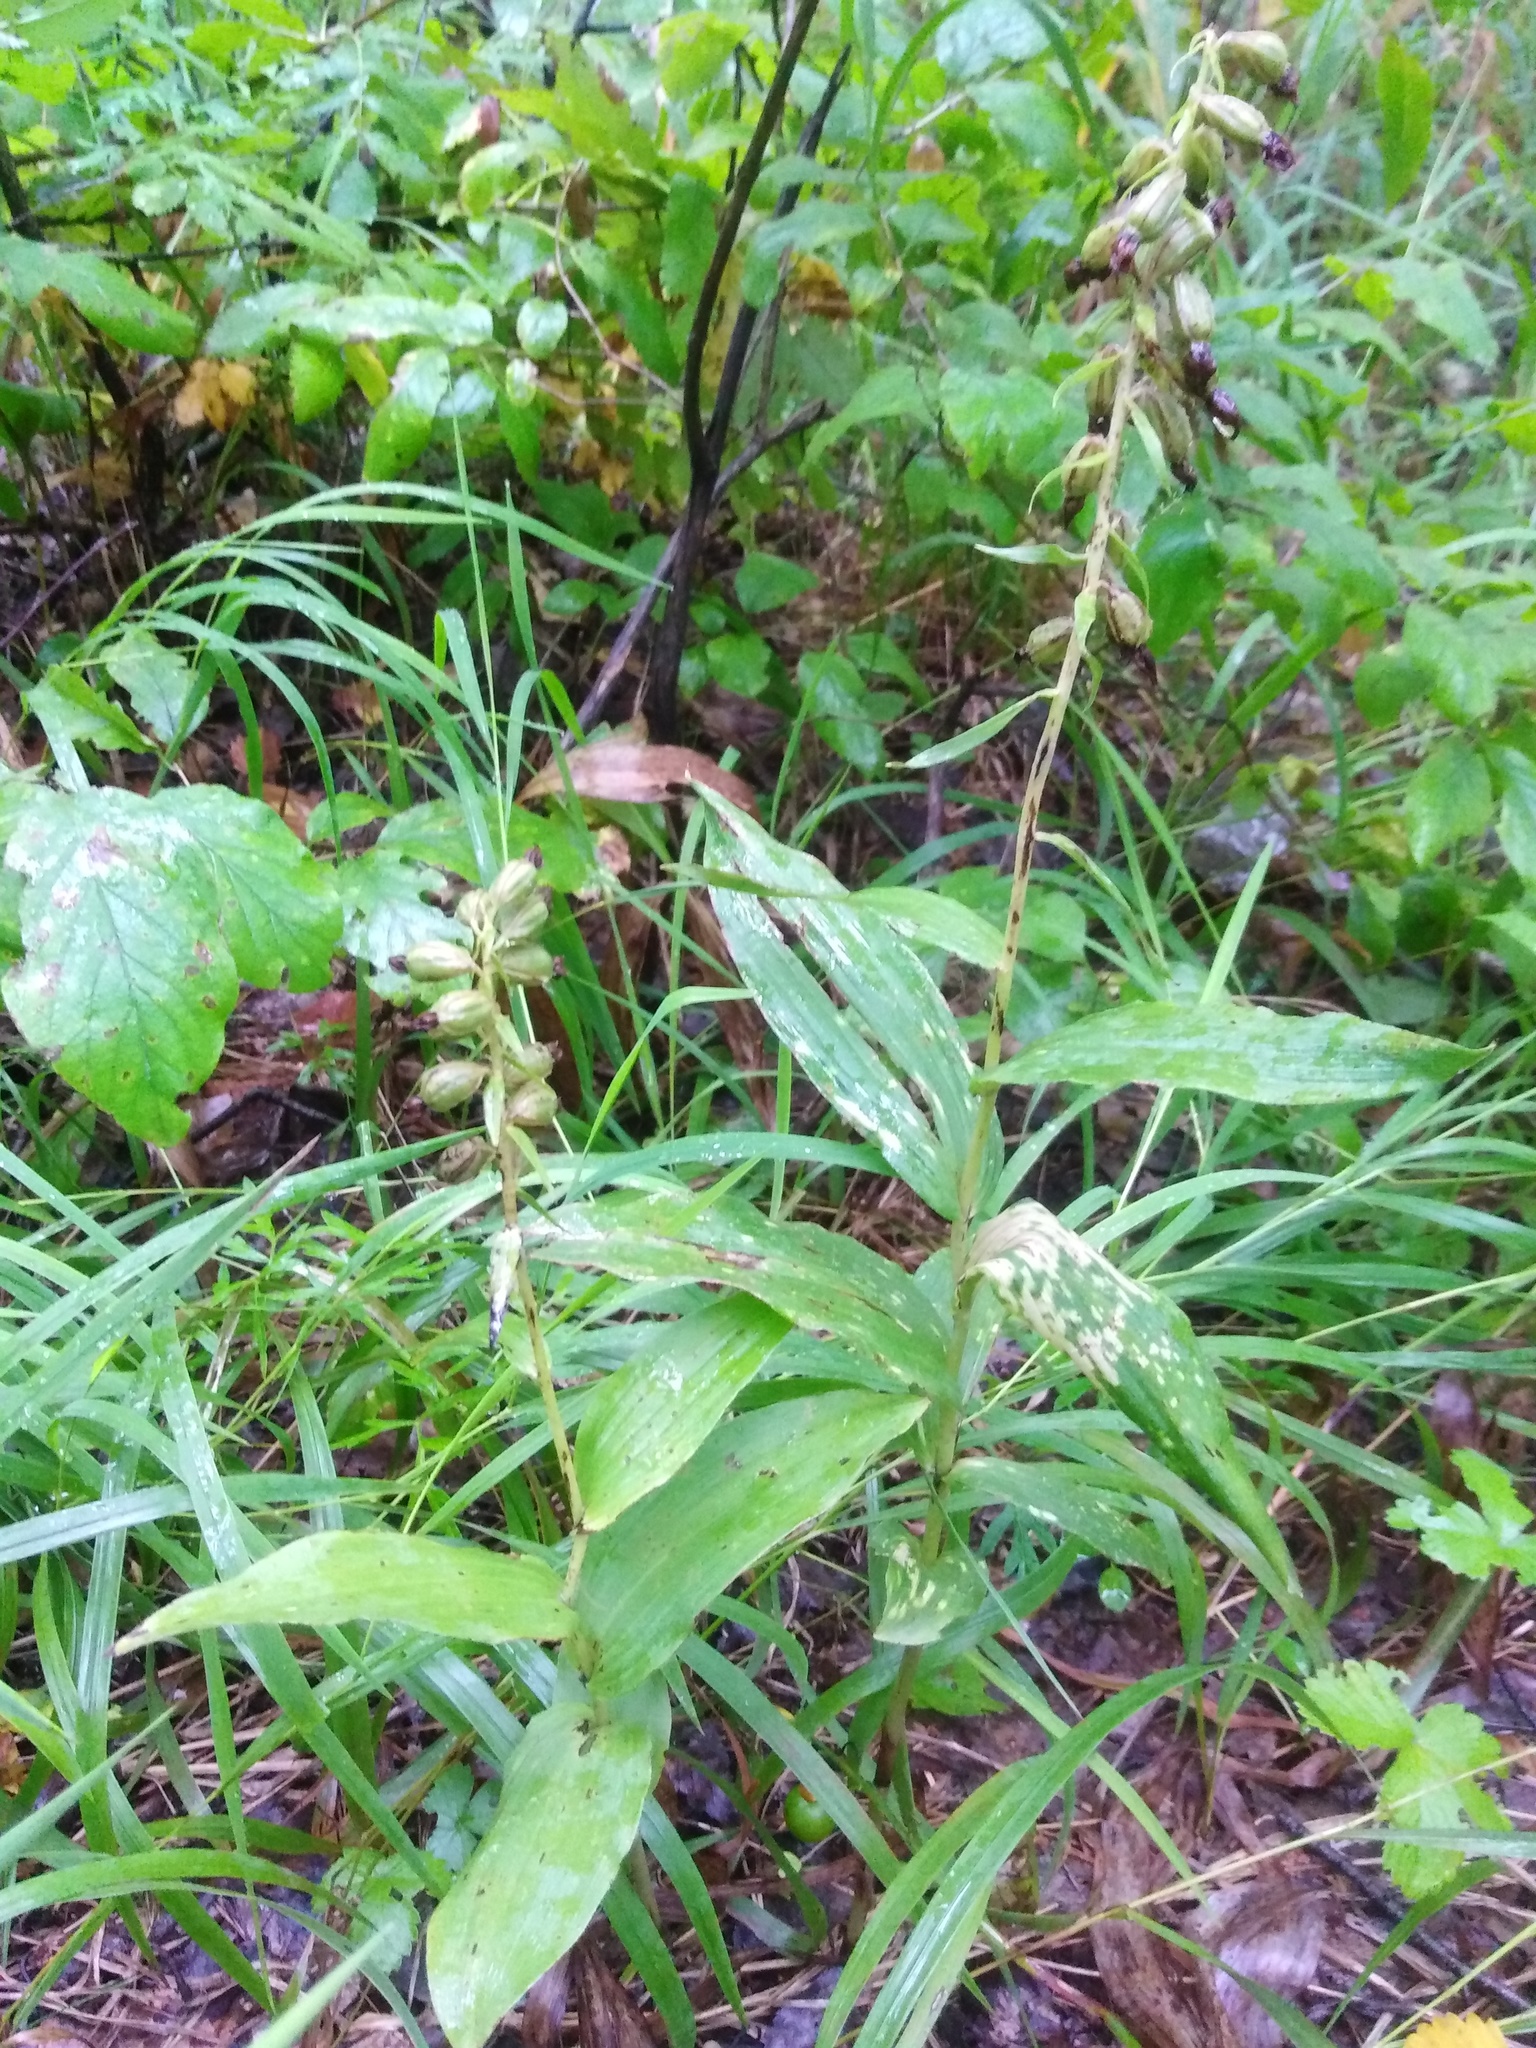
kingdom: Plantae
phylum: Tracheophyta
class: Liliopsida
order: Asparagales
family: Orchidaceae
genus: Epipactis
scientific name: Epipactis helleborine
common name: Broad-leaved helleborine
